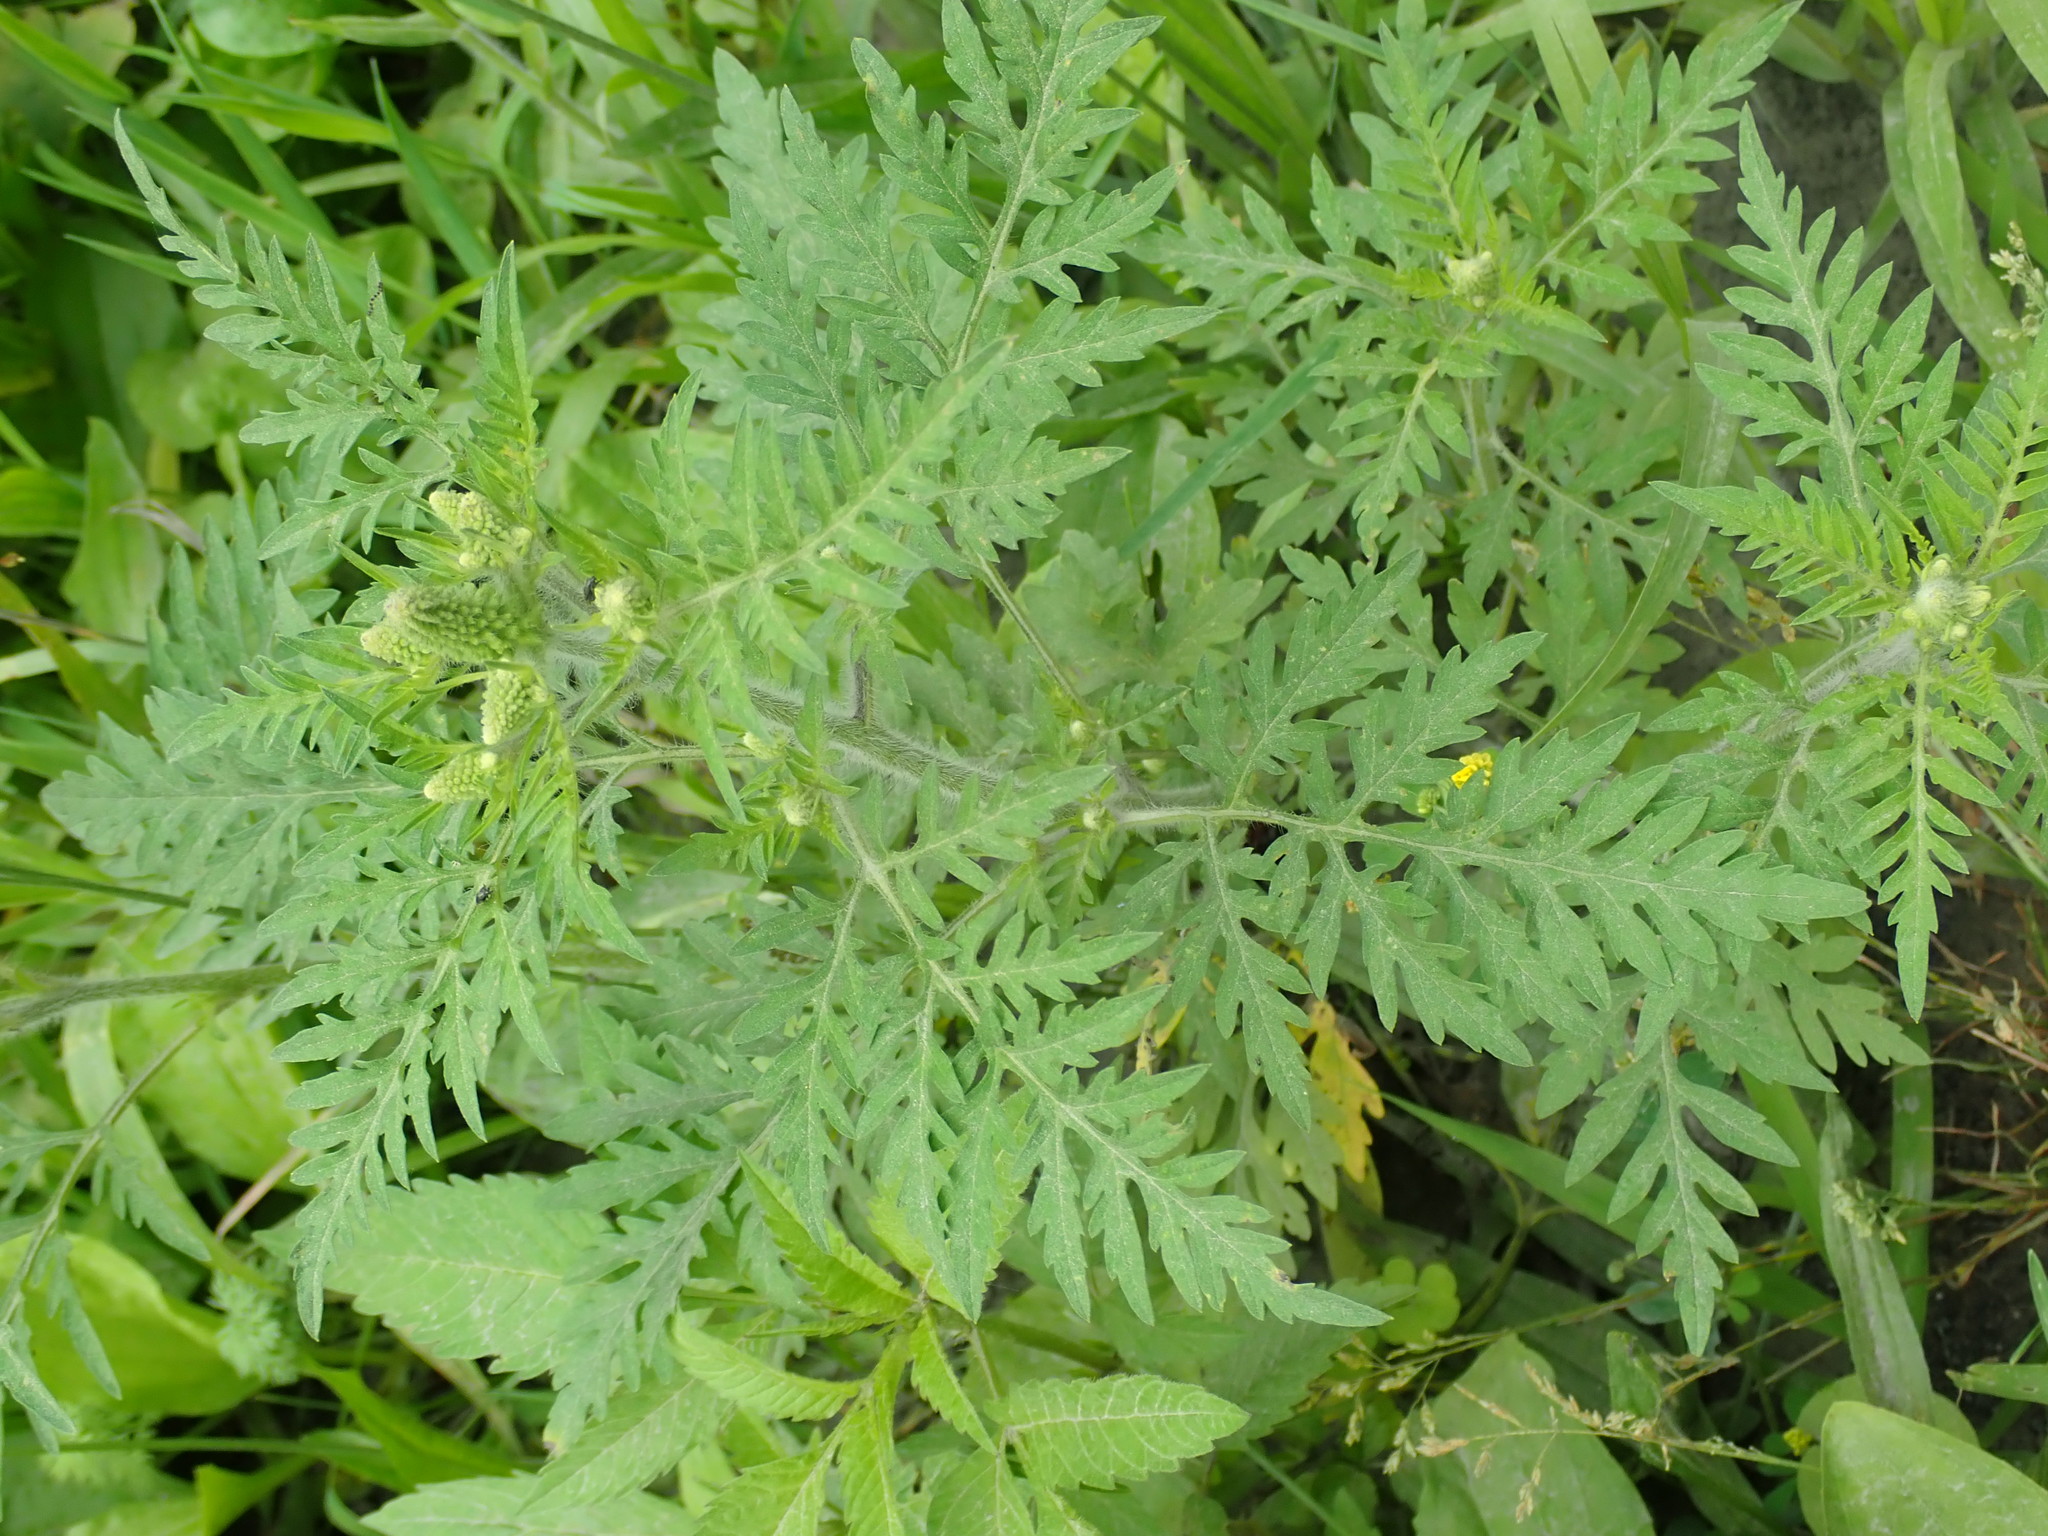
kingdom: Plantae
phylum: Tracheophyta
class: Magnoliopsida
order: Asterales
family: Asteraceae
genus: Ambrosia
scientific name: Ambrosia artemisiifolia
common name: Annual ragweed
